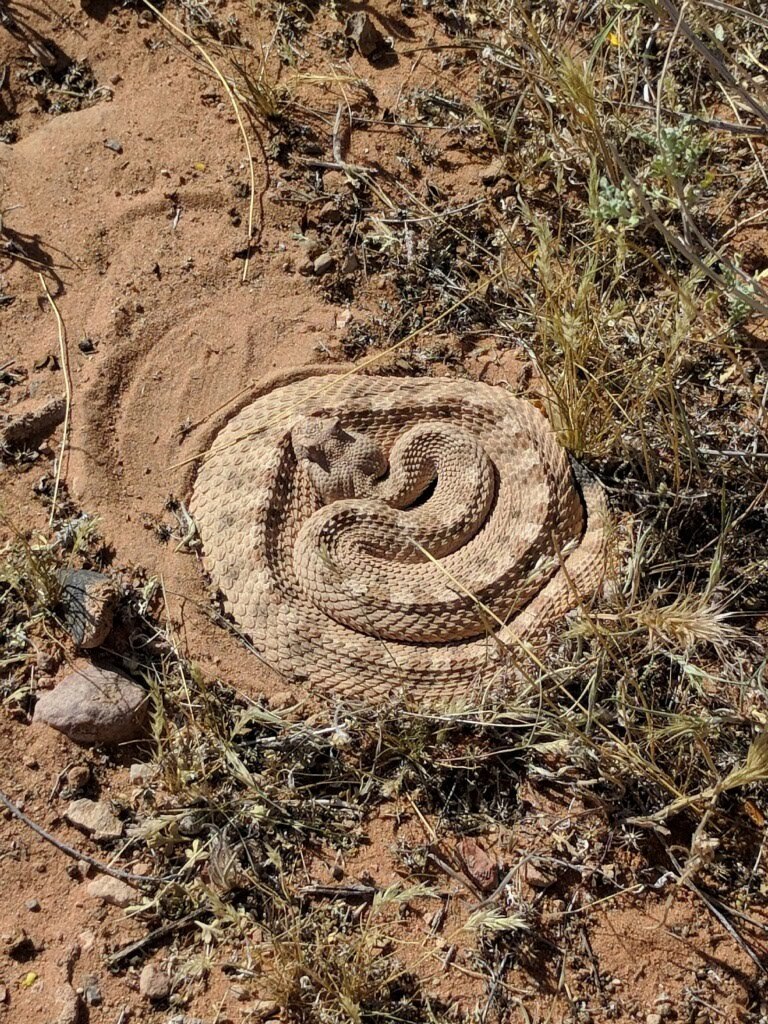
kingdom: Animalia
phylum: Chordata
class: Squamata
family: Viperidae
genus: Crotalus
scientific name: Crotalus cerastes
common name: Sidewinder
